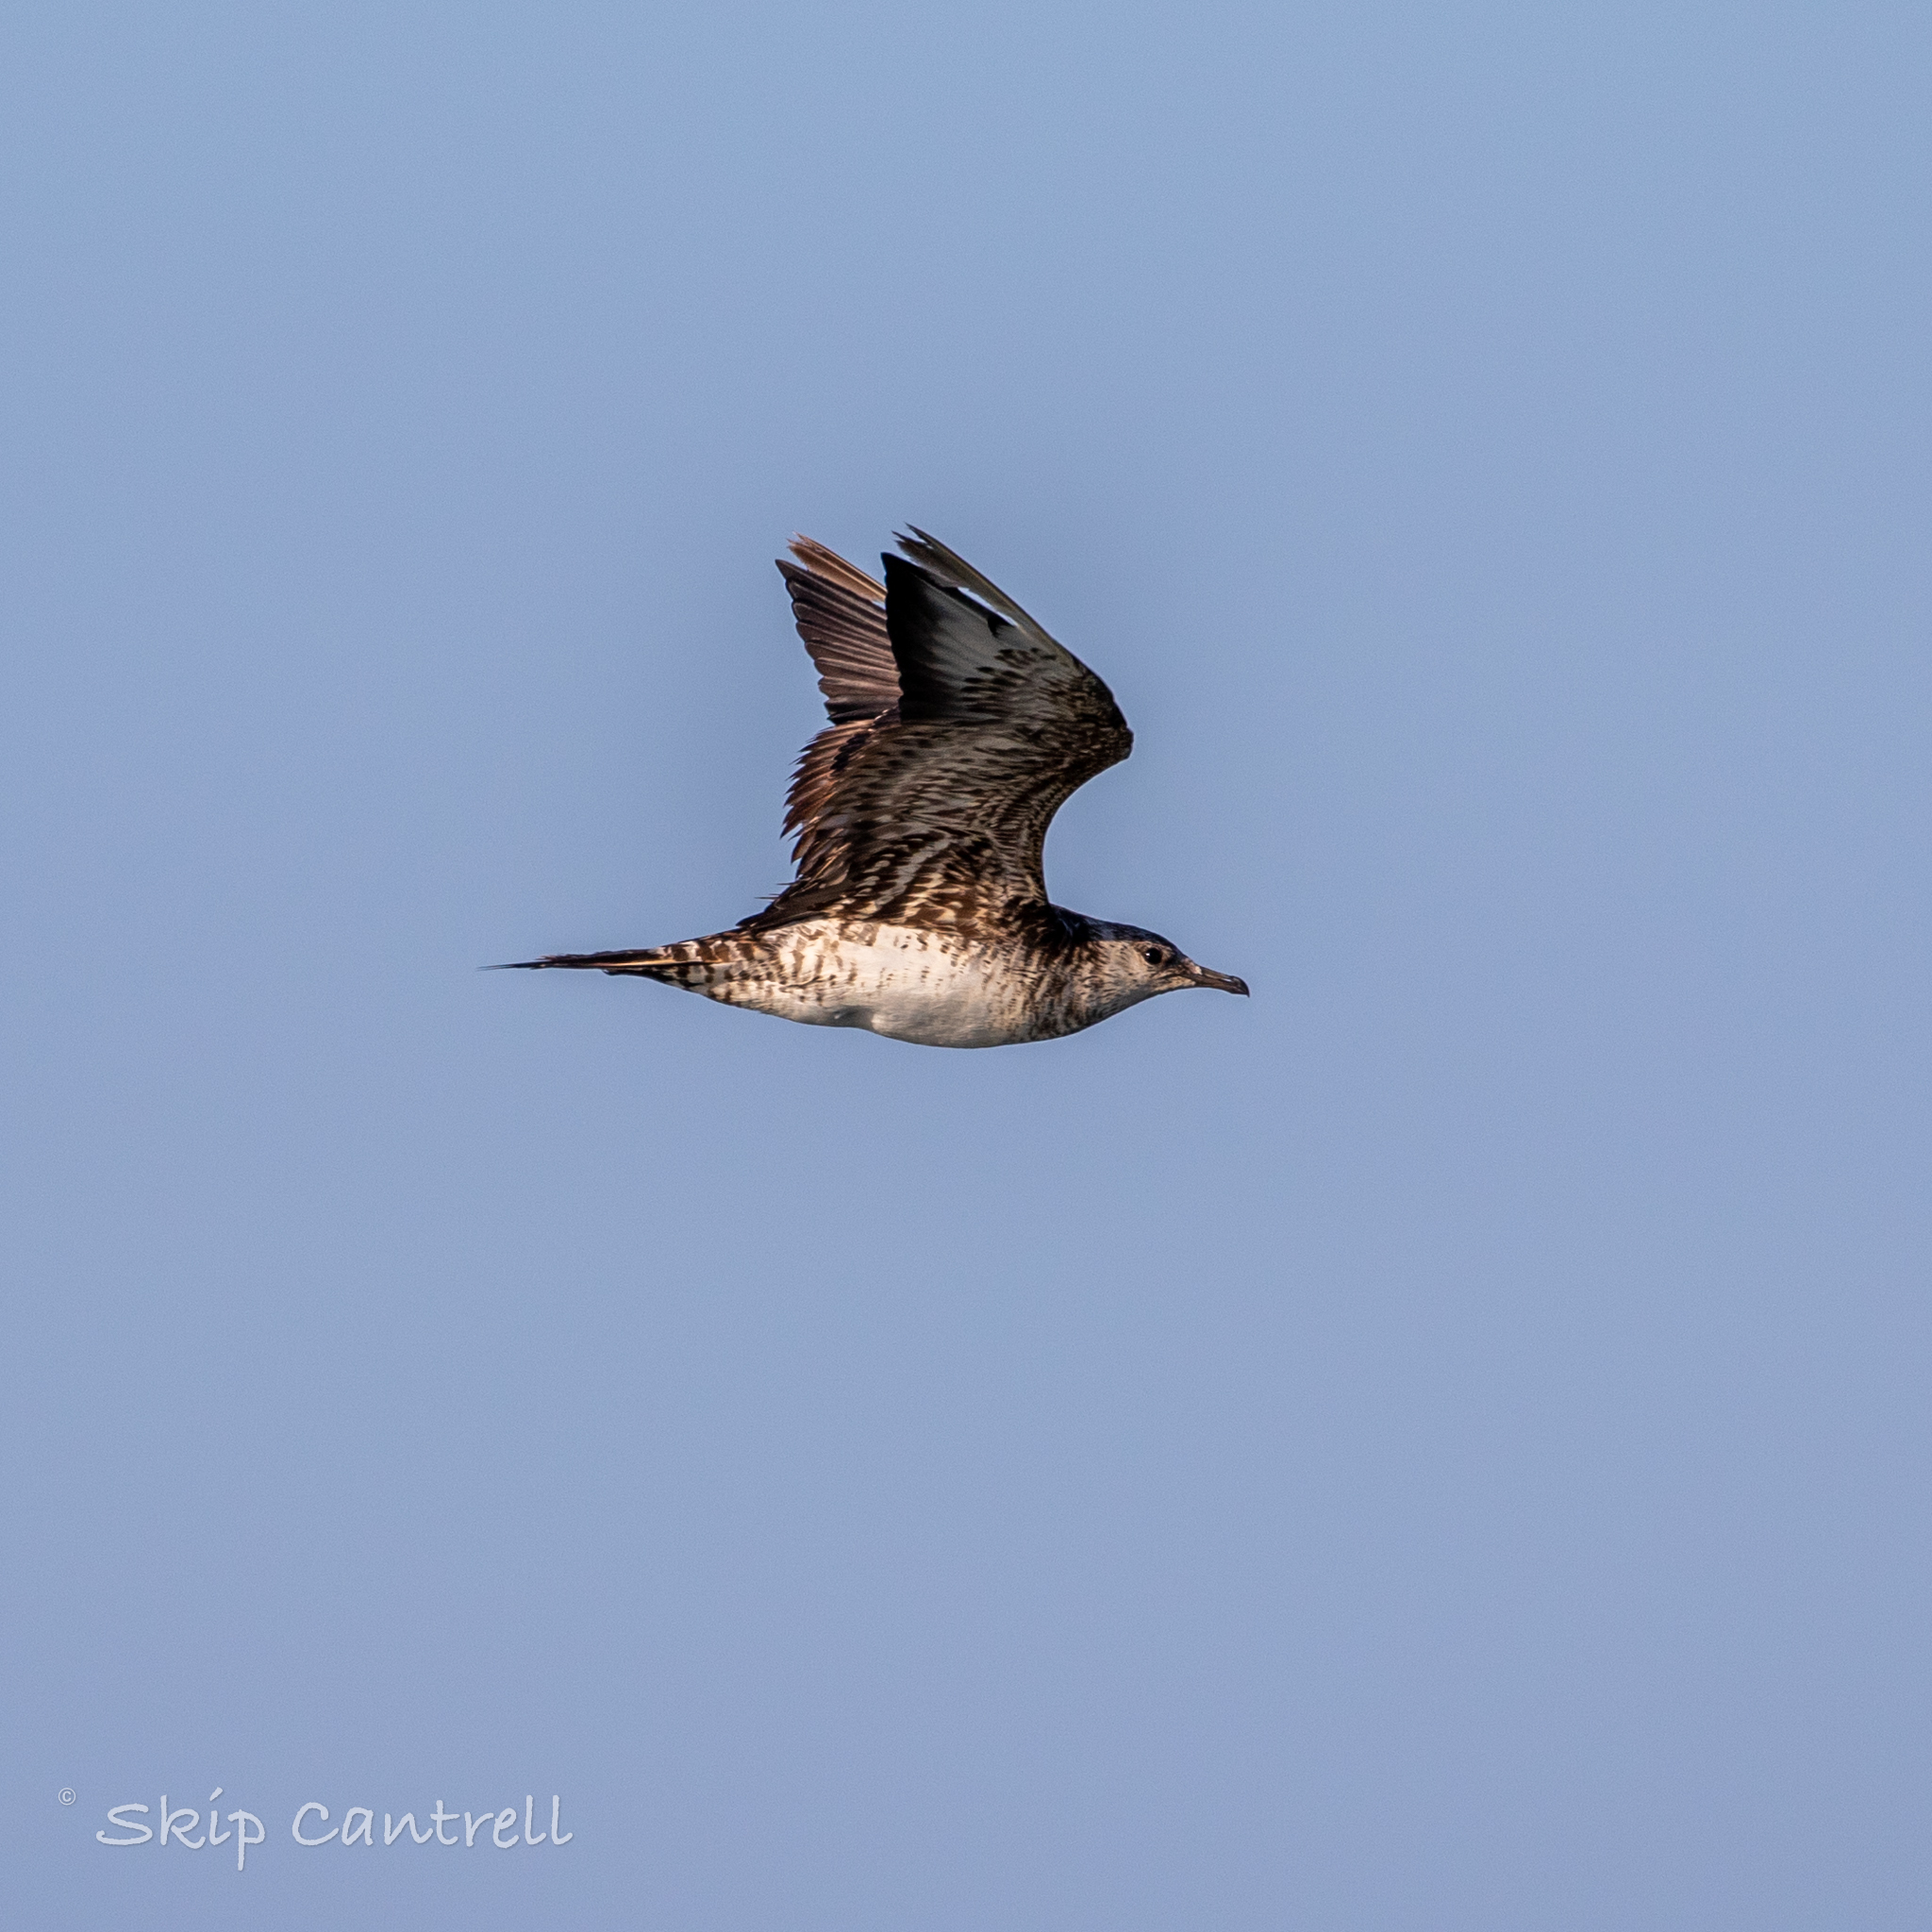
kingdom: Animalia
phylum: Chordata
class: Aves
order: Charadriiformes
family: Stercorariidae
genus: Stercorarius
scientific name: Stercorarius parasiticus
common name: Parasitic jaeger
